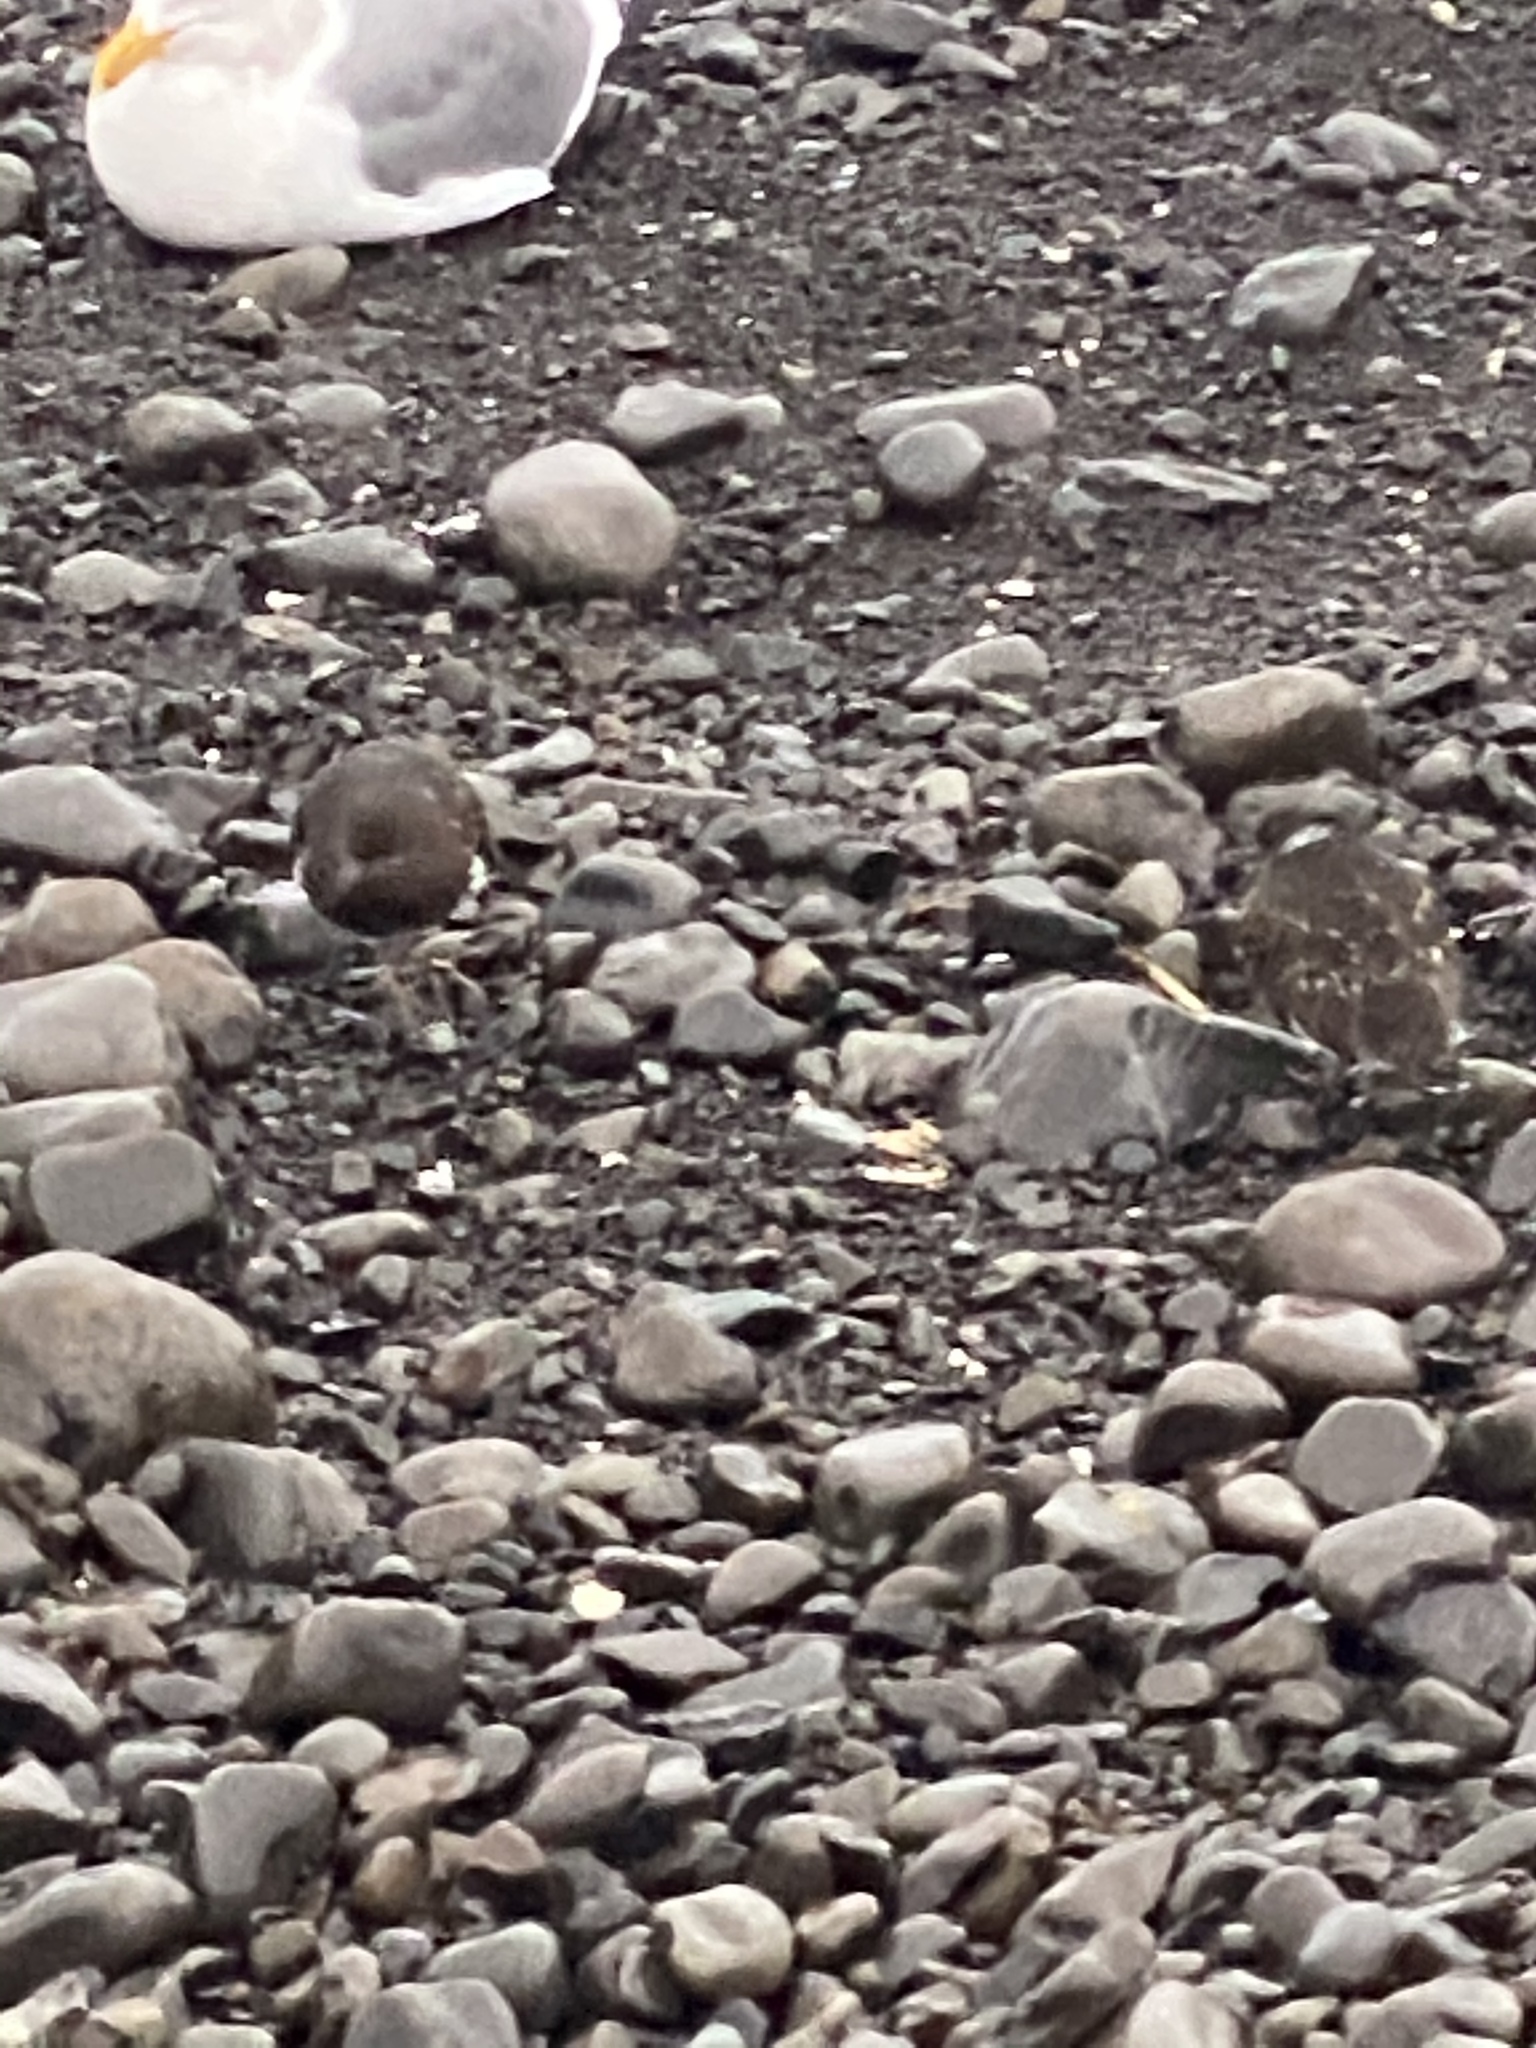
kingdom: Animalia
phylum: Chordata
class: Aves
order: Charadriiformes
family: Scolopacidae
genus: Arenaria
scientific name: Arenaria melanocephala
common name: Black turnstone
